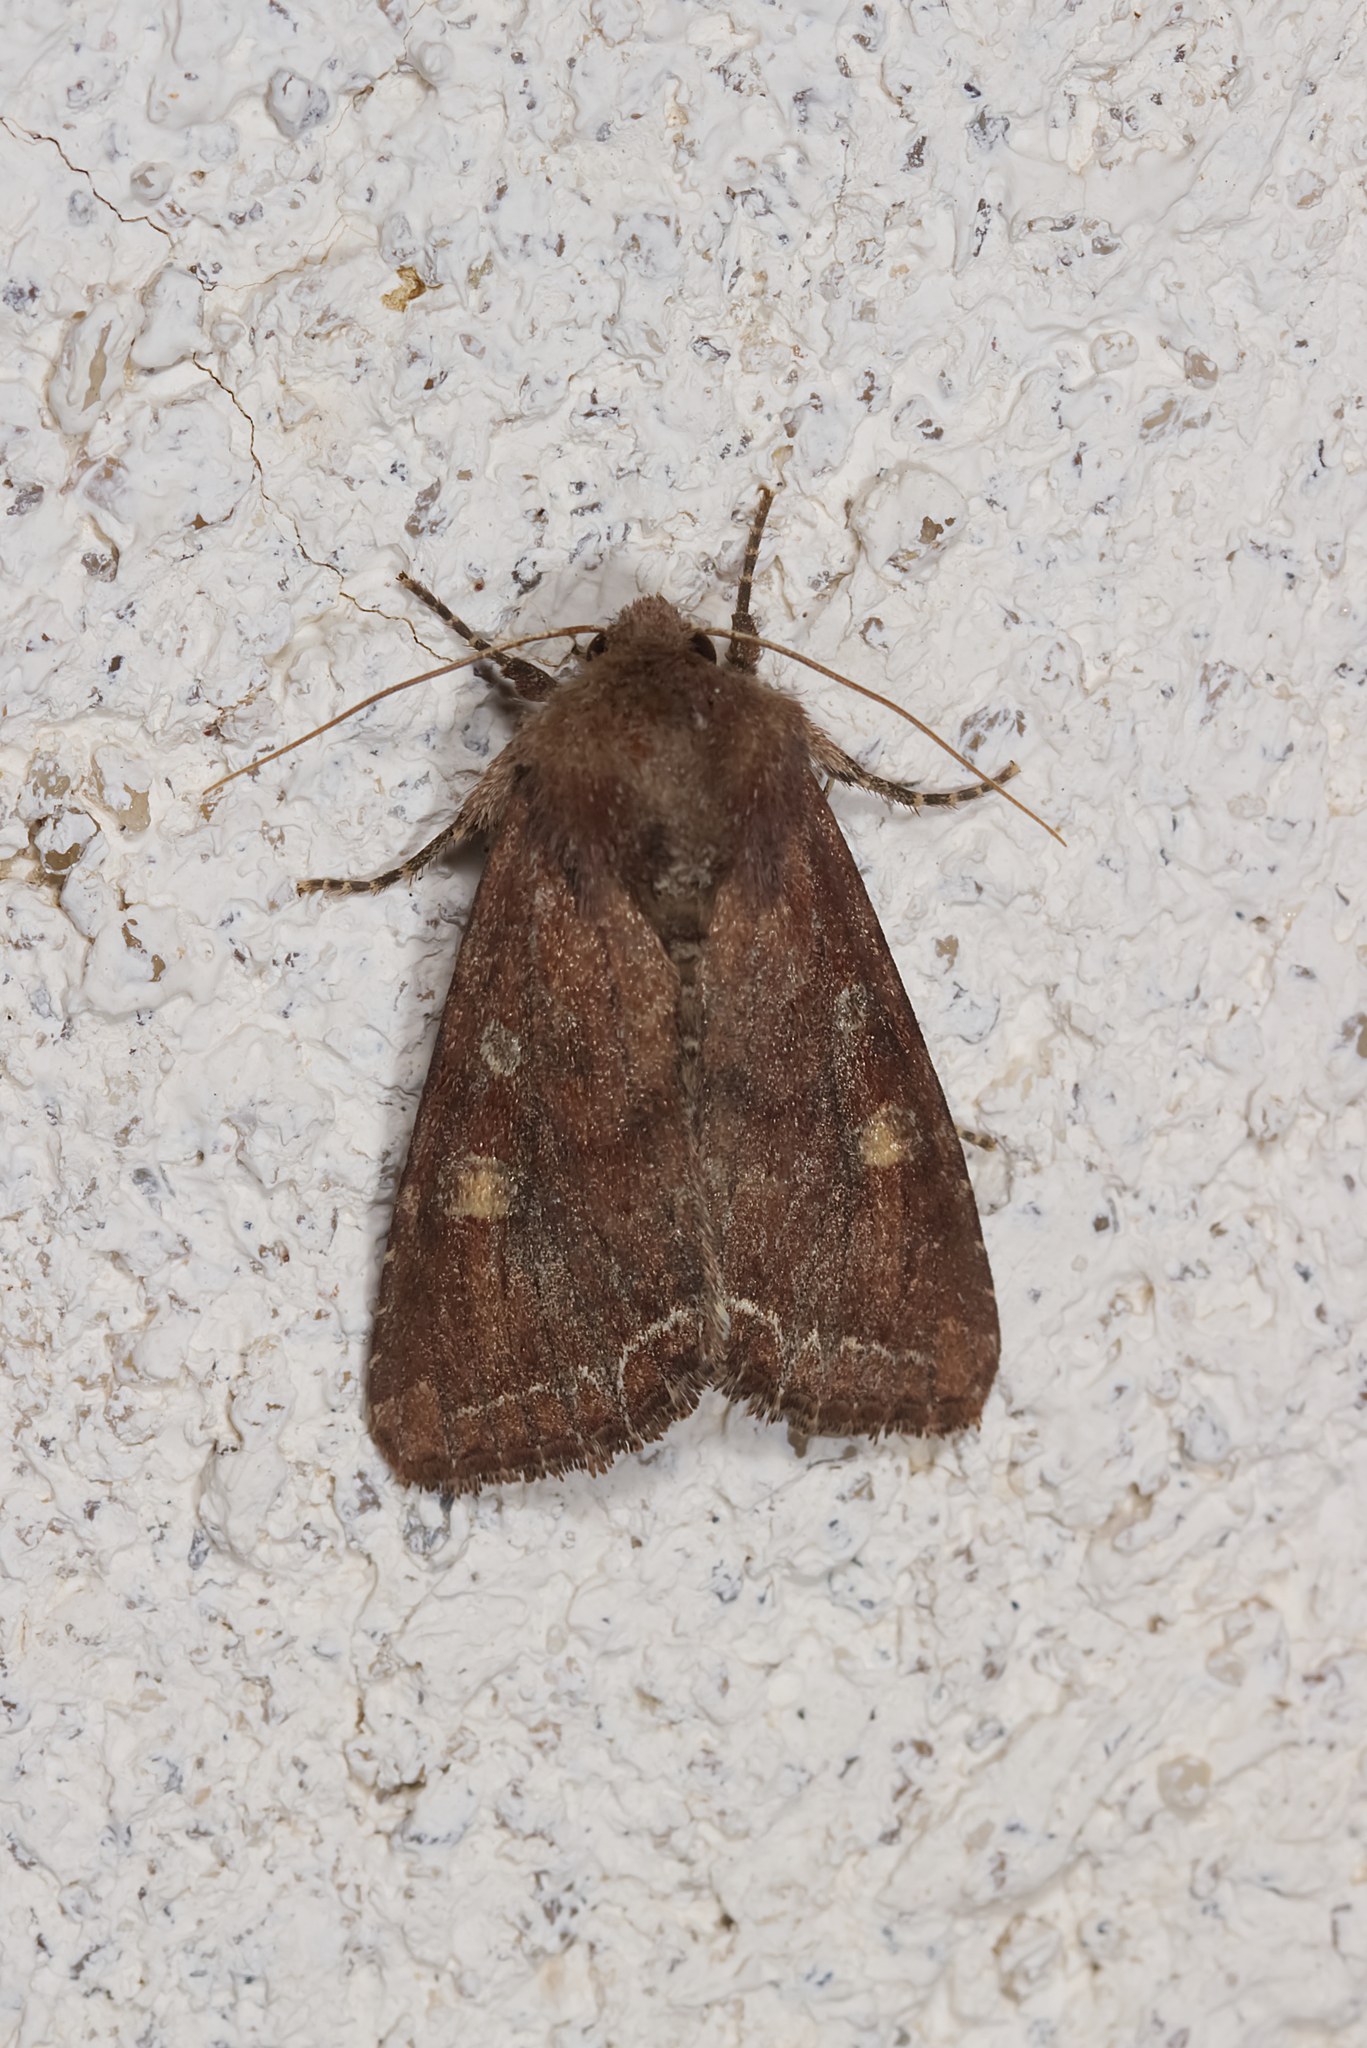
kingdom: Animalia
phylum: Arthropoda
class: Insecta
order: Lepidoptera
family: Noctuidae
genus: Lacanobia
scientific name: Lacanobia oleracea
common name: Bright-line brown-eye
